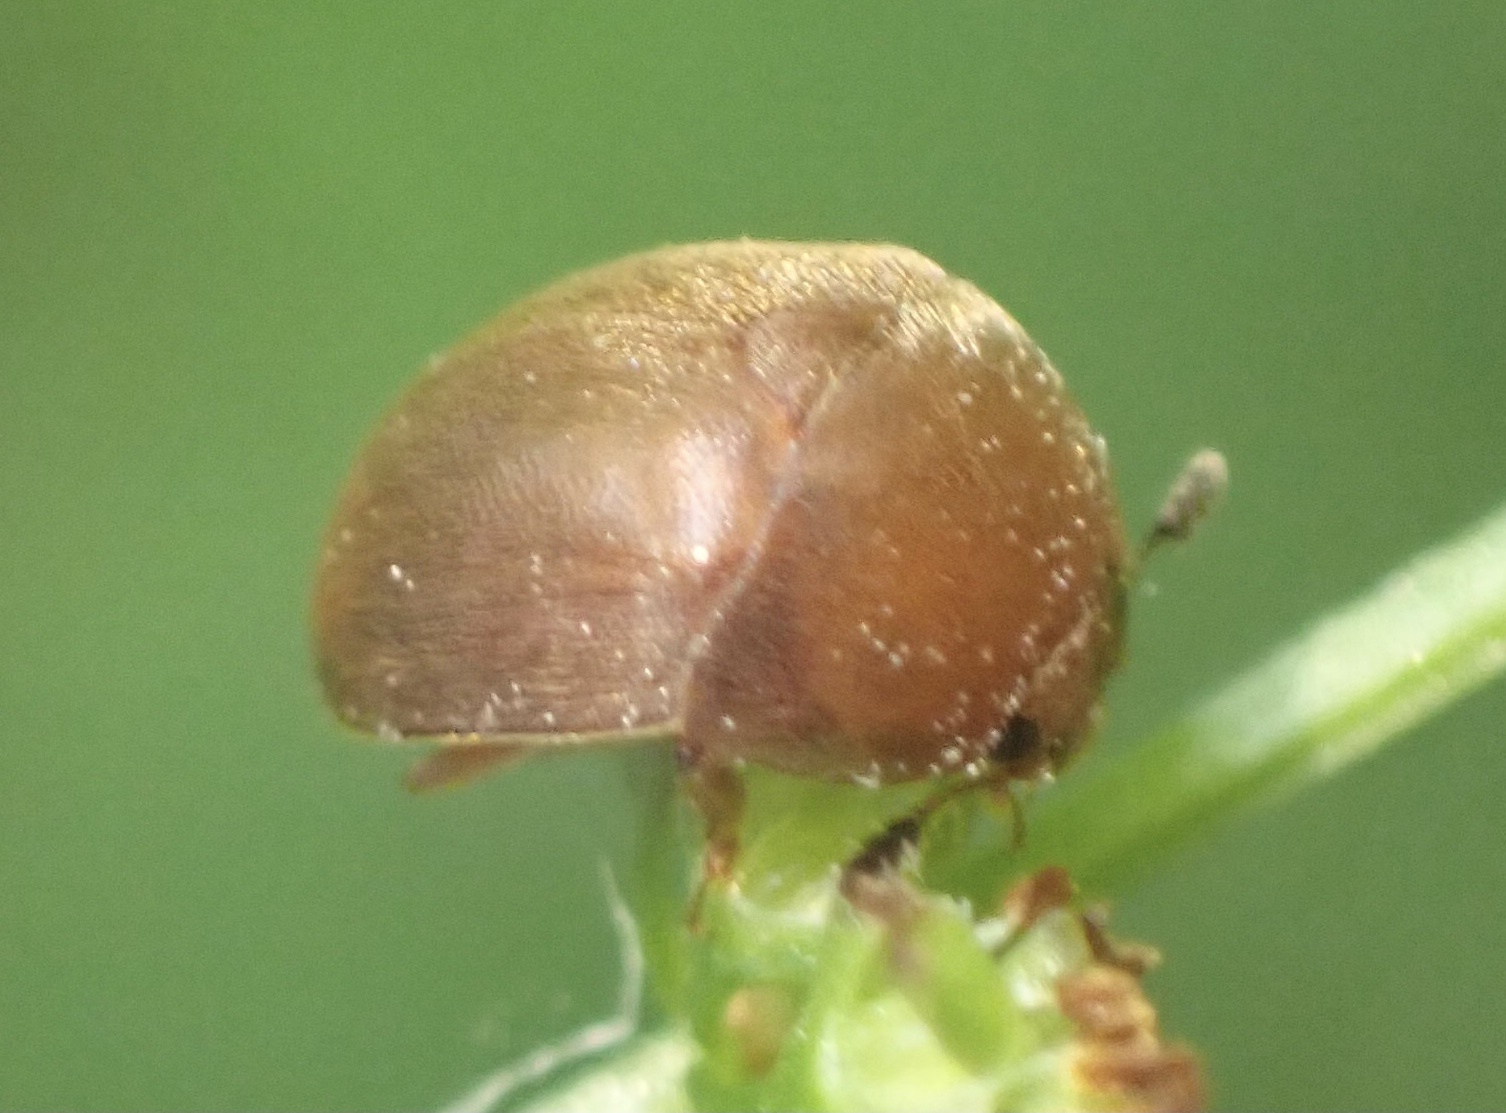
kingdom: Animalia
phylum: Arthropoda
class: Insecta
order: Coleoptera
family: Nitidulidae
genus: Cychramus
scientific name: Cychramus luteus
